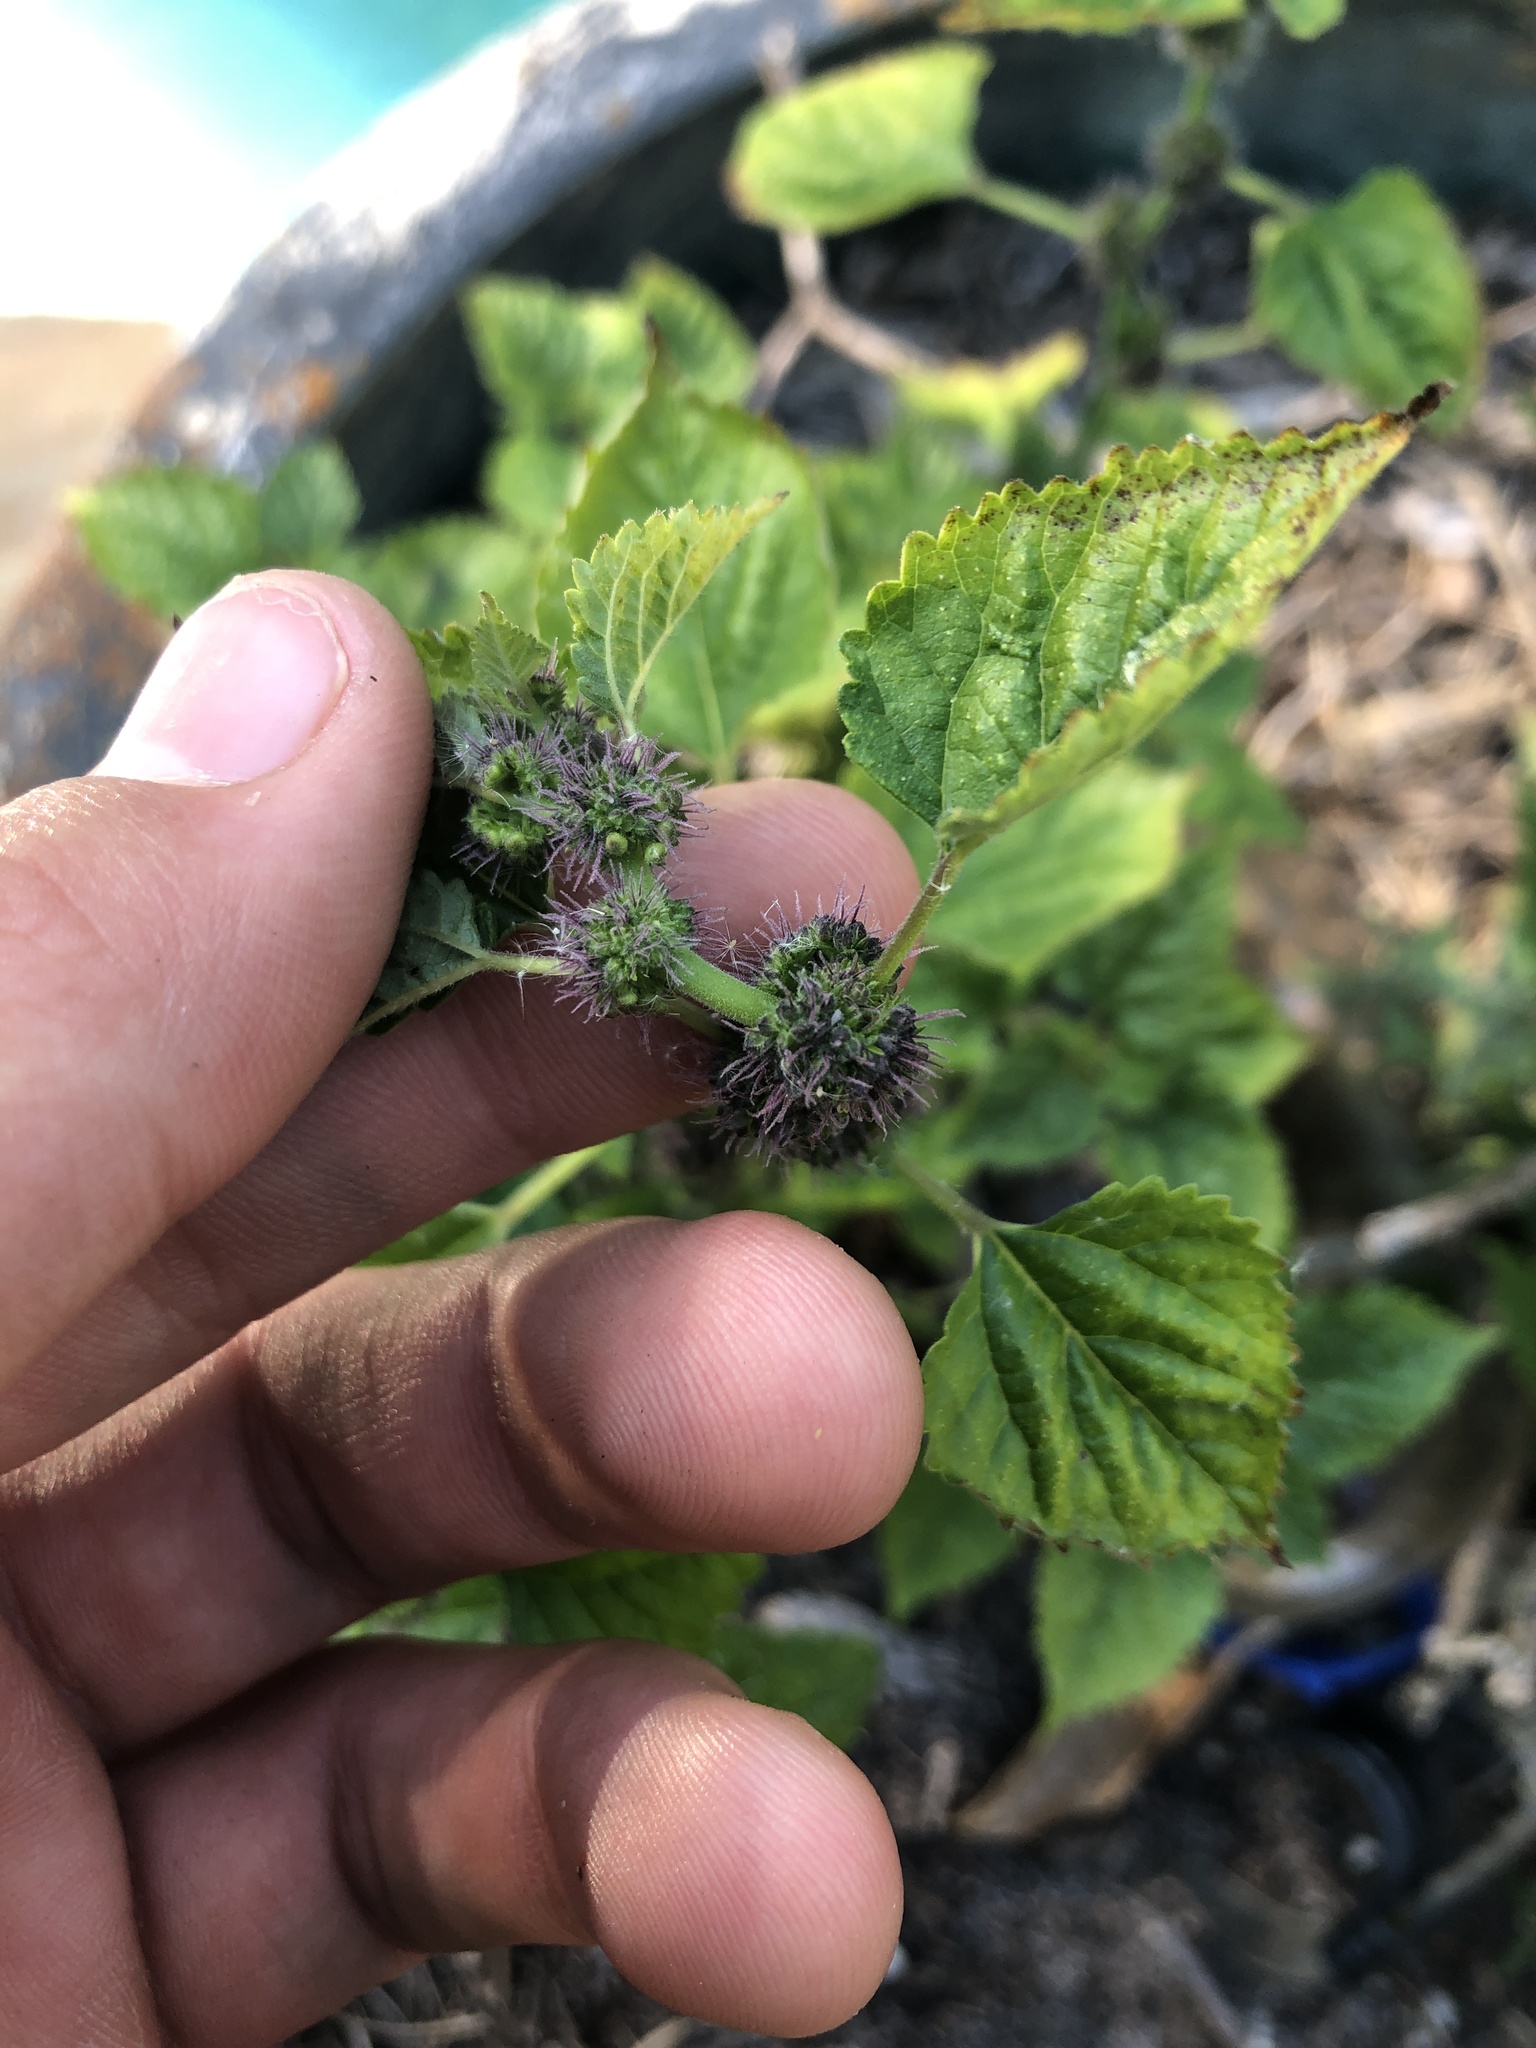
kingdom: Plantae
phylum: Tracheophyta
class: Magnoliopsida
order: Rosales
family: Moraceae
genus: Fatoua
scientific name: Fatoua villosa
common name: Hairy crabweed
